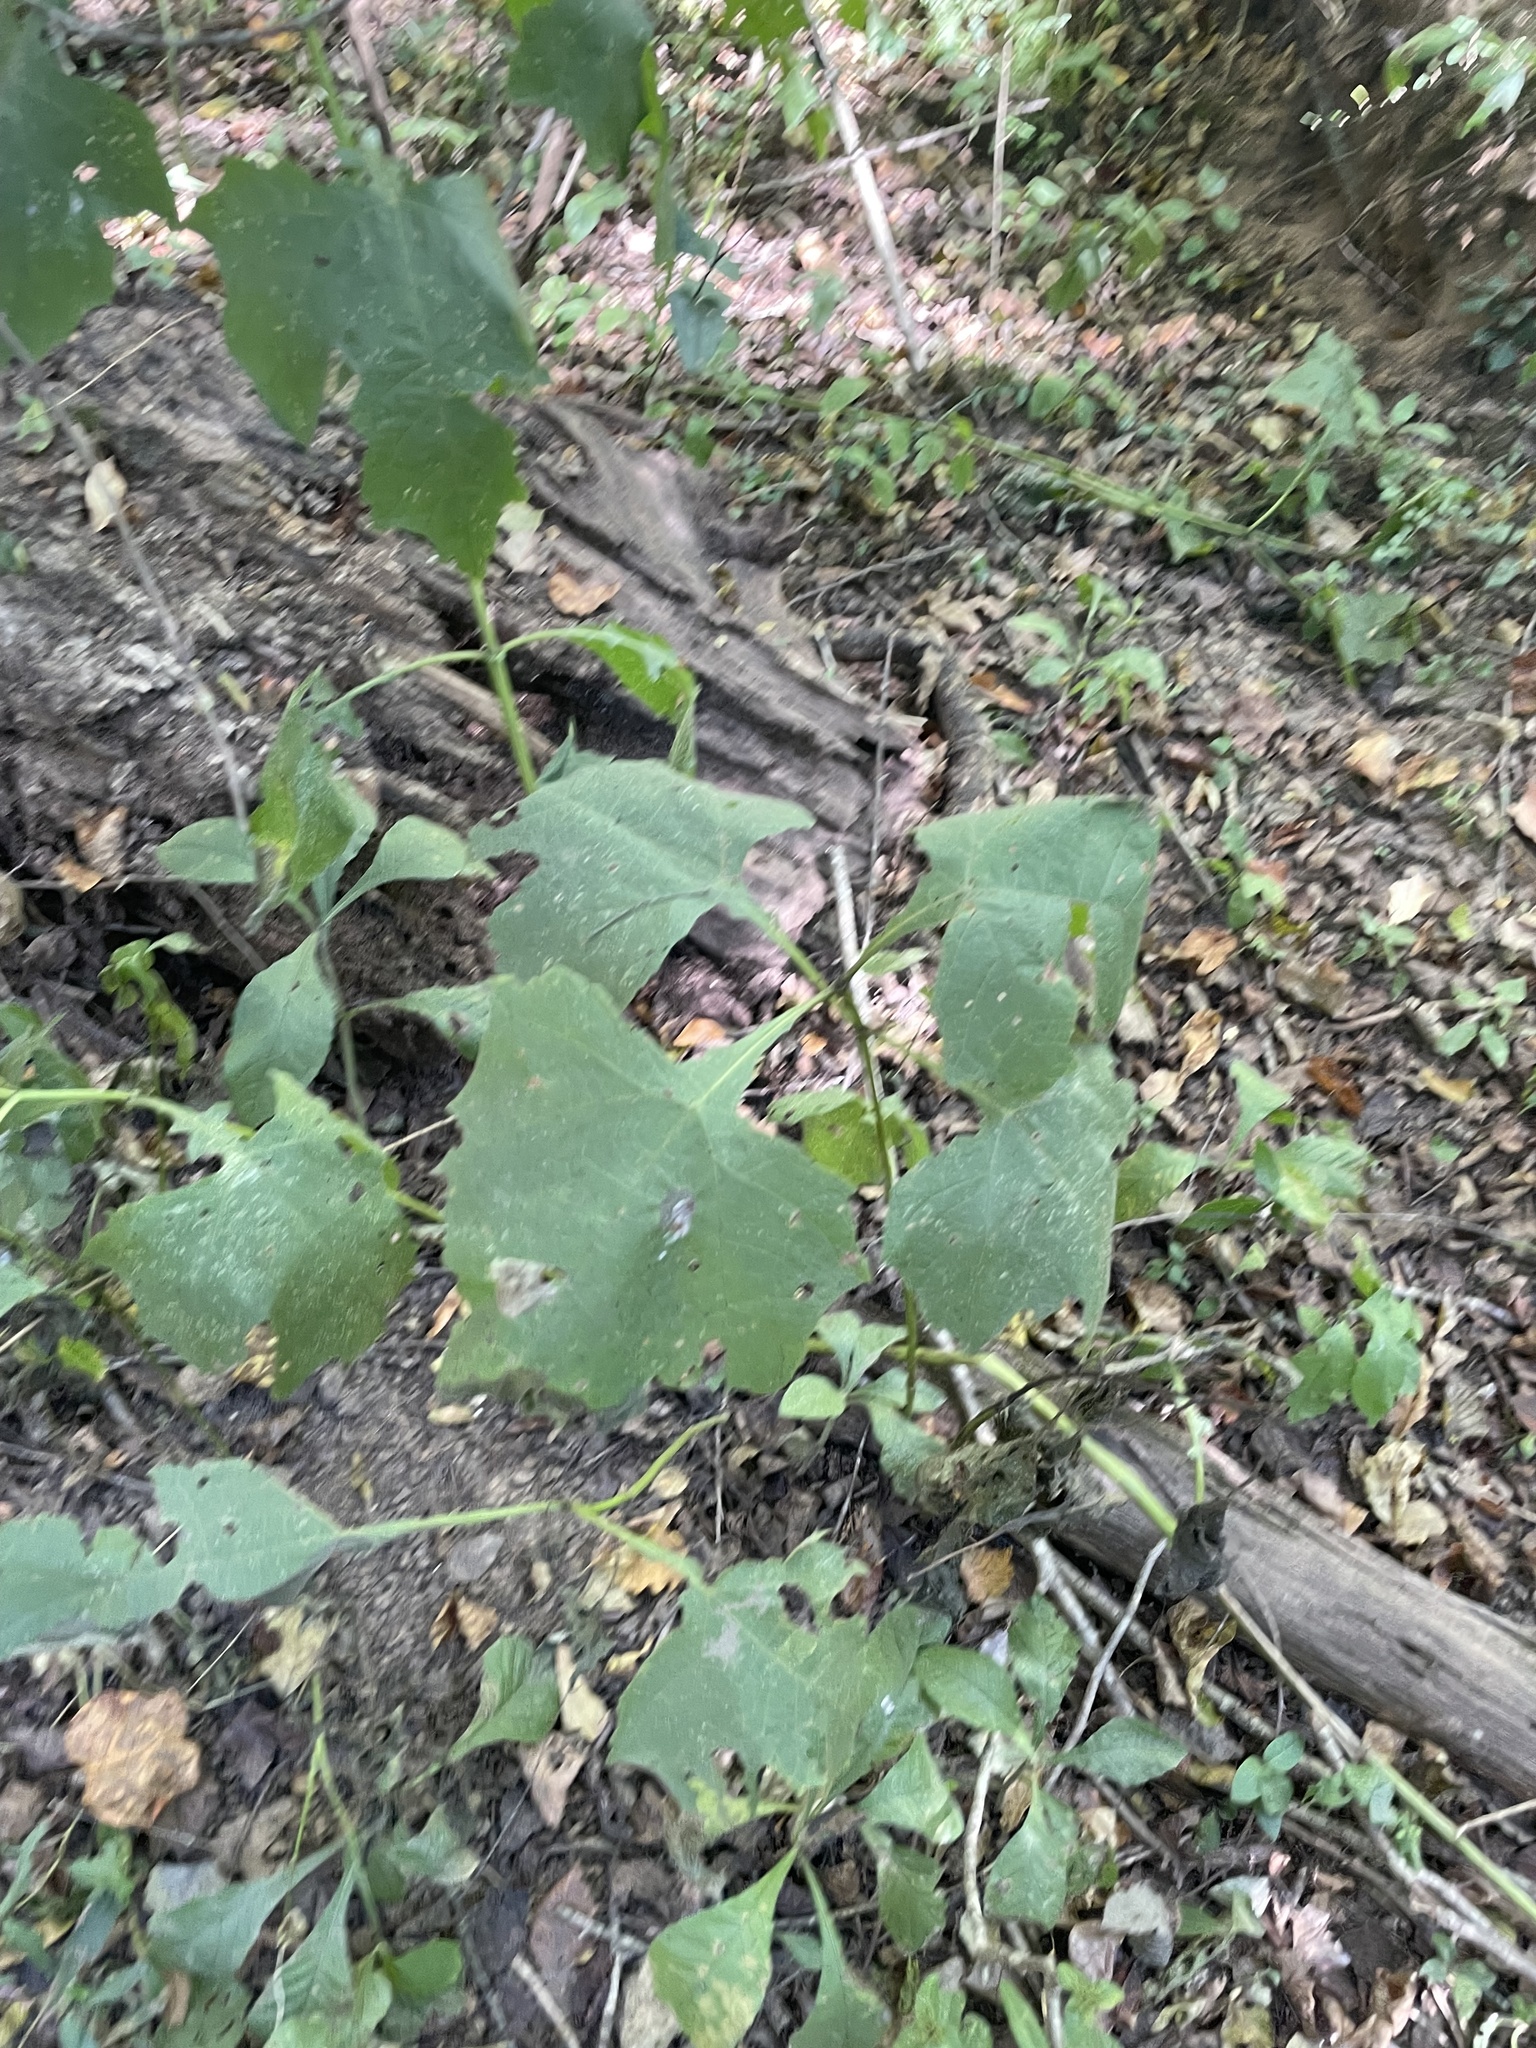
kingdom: Plantae
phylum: Tracheophyta
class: Magnoliopsida
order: Asterales
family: Asteraceae
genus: Smallanthus
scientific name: Smallanthus uvedalia
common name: Bear's-foot
